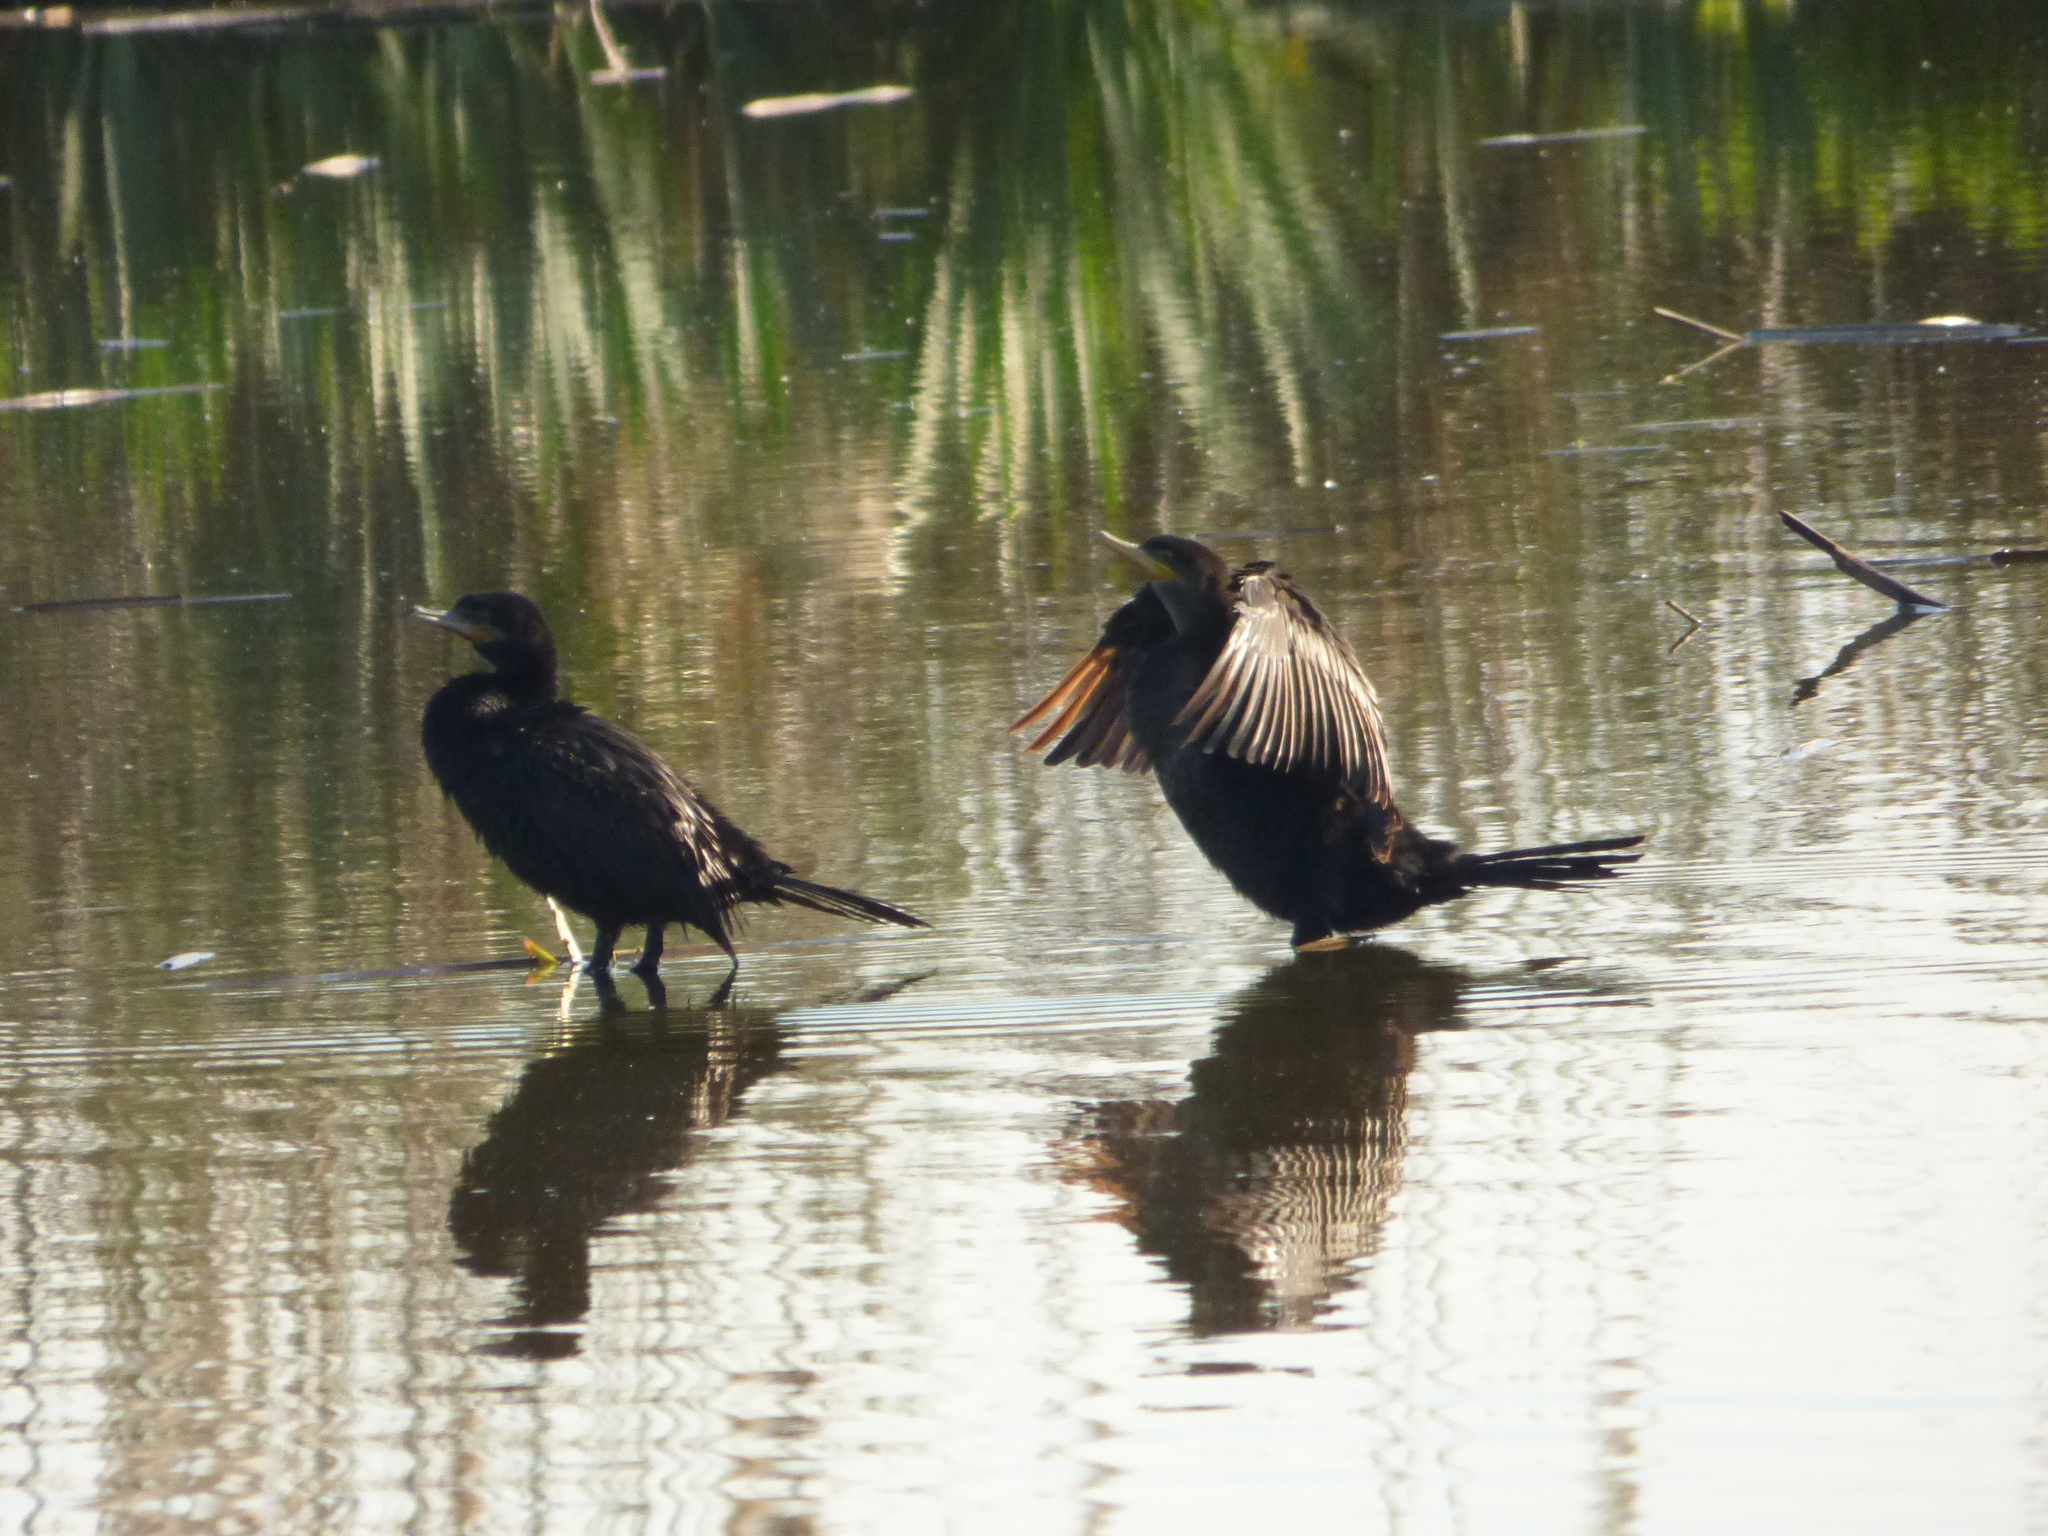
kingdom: Animalia
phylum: Chordata
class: Aves
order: Suliformes
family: Phalacrocoracidae
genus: Phalacrocorax
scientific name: Phalacrocorax brasilianus
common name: Neotropic cormorant
